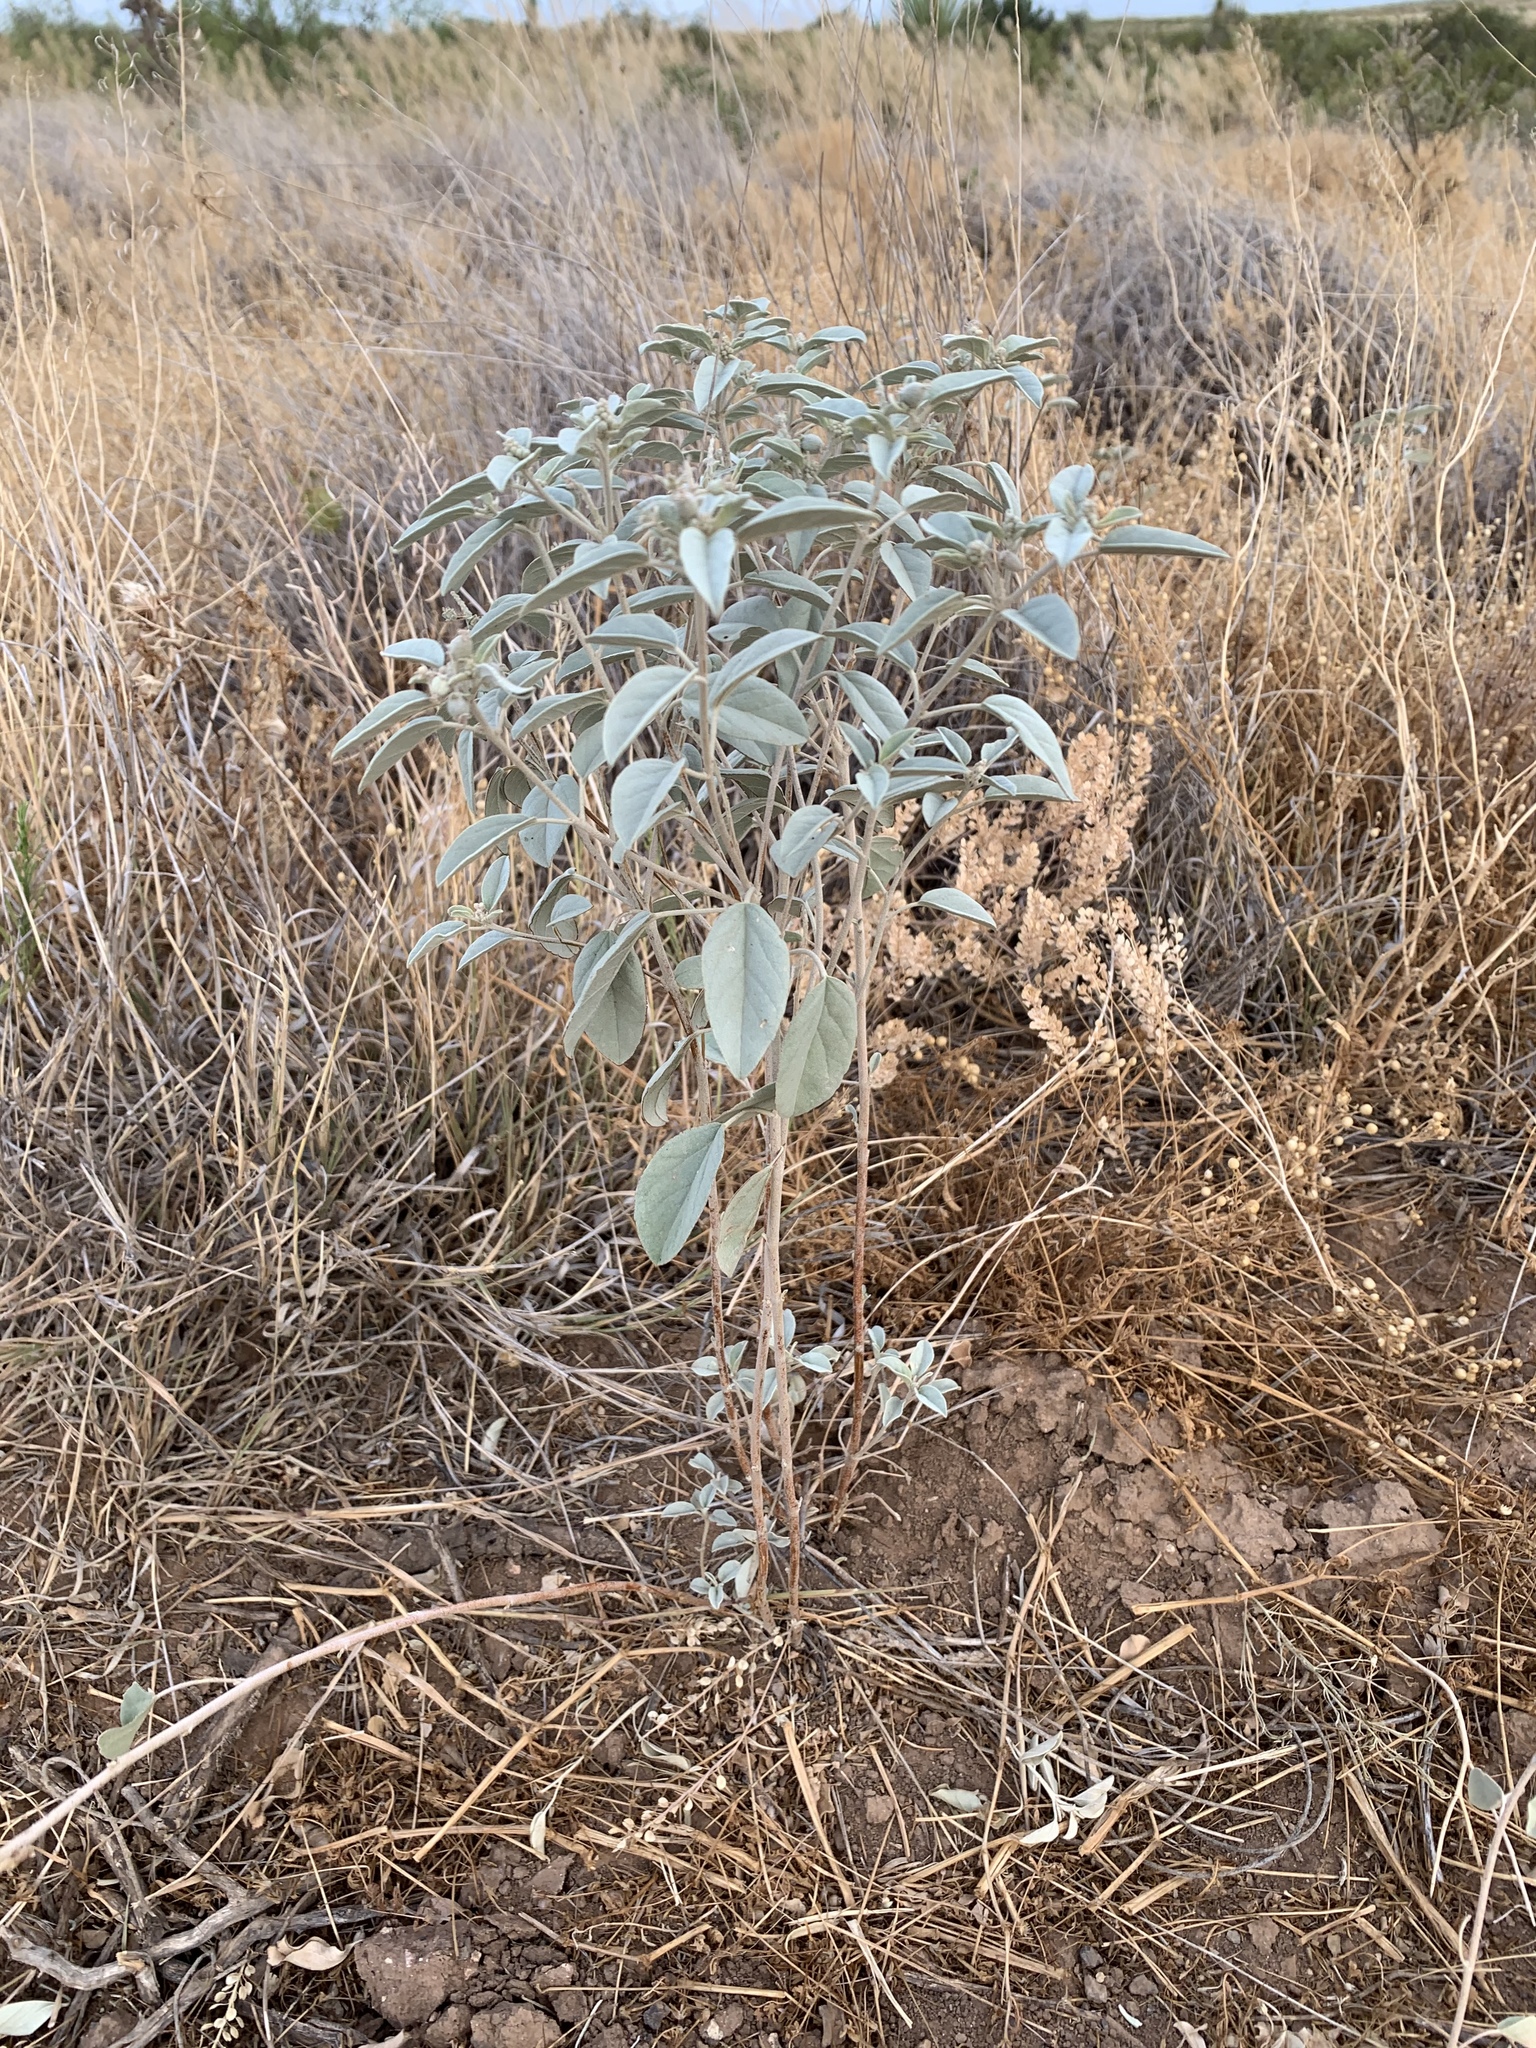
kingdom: Plantae
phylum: Tracheophyta
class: Magnoliopsida
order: Malpighiales
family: Euphorbiaceae
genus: Croton
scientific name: Croton pottsii
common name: Leatherweed
